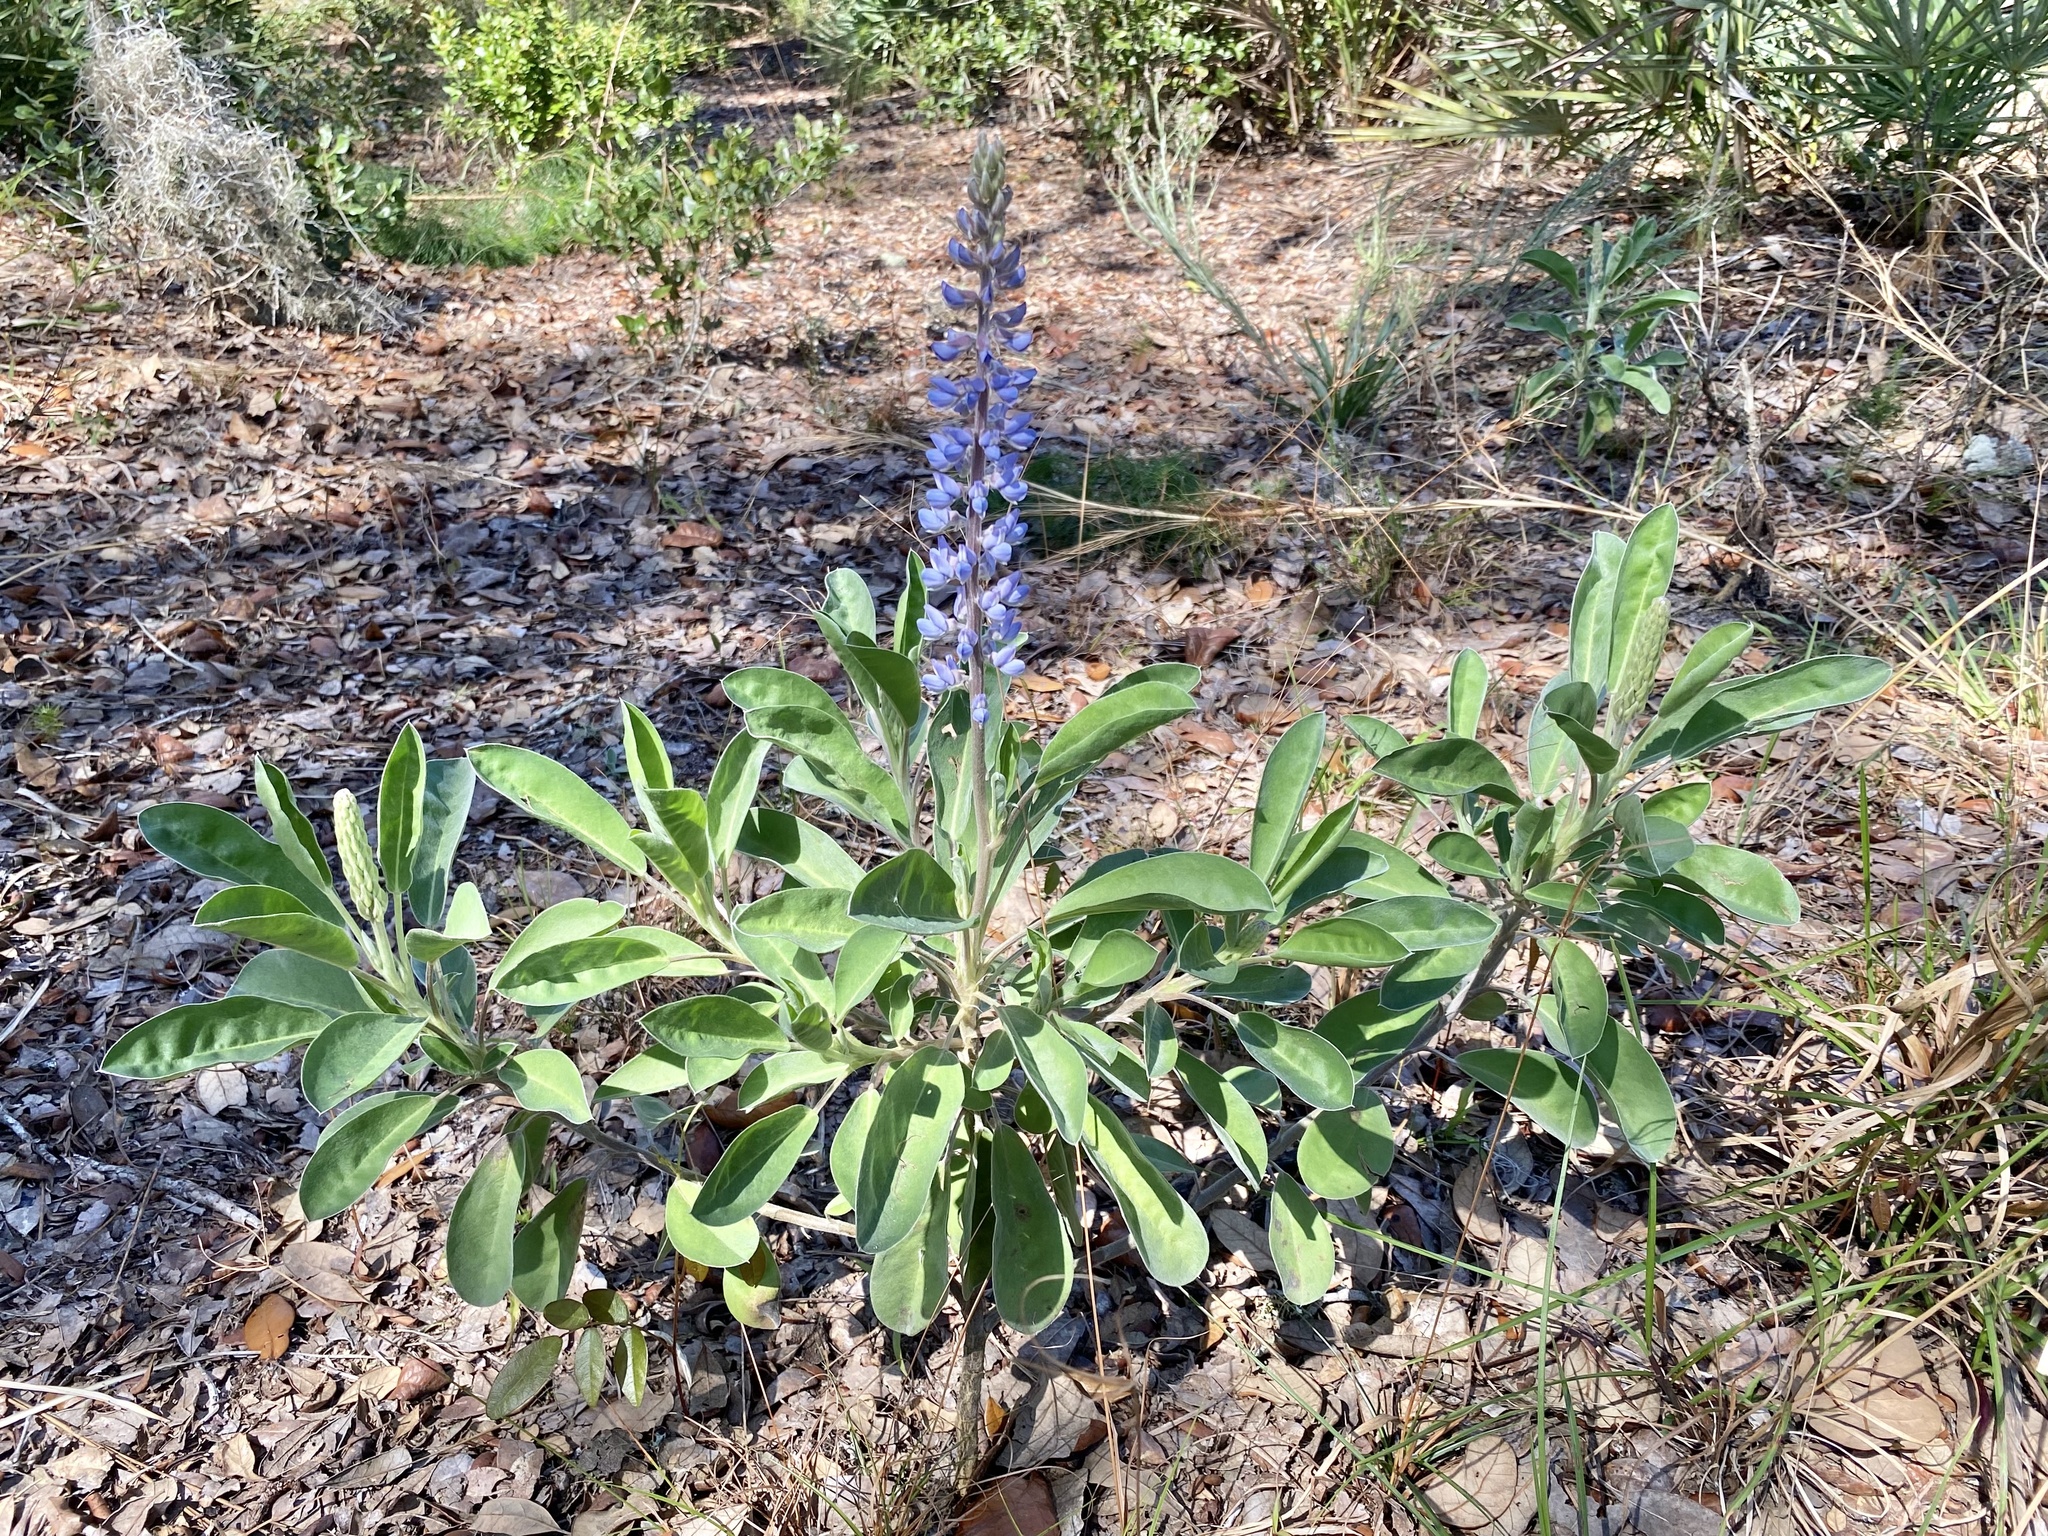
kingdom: Plantae
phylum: Tracheophyta
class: Magnoliopsida
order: Fabales
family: Fabaceae
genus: Lupinus
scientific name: Lupinus
